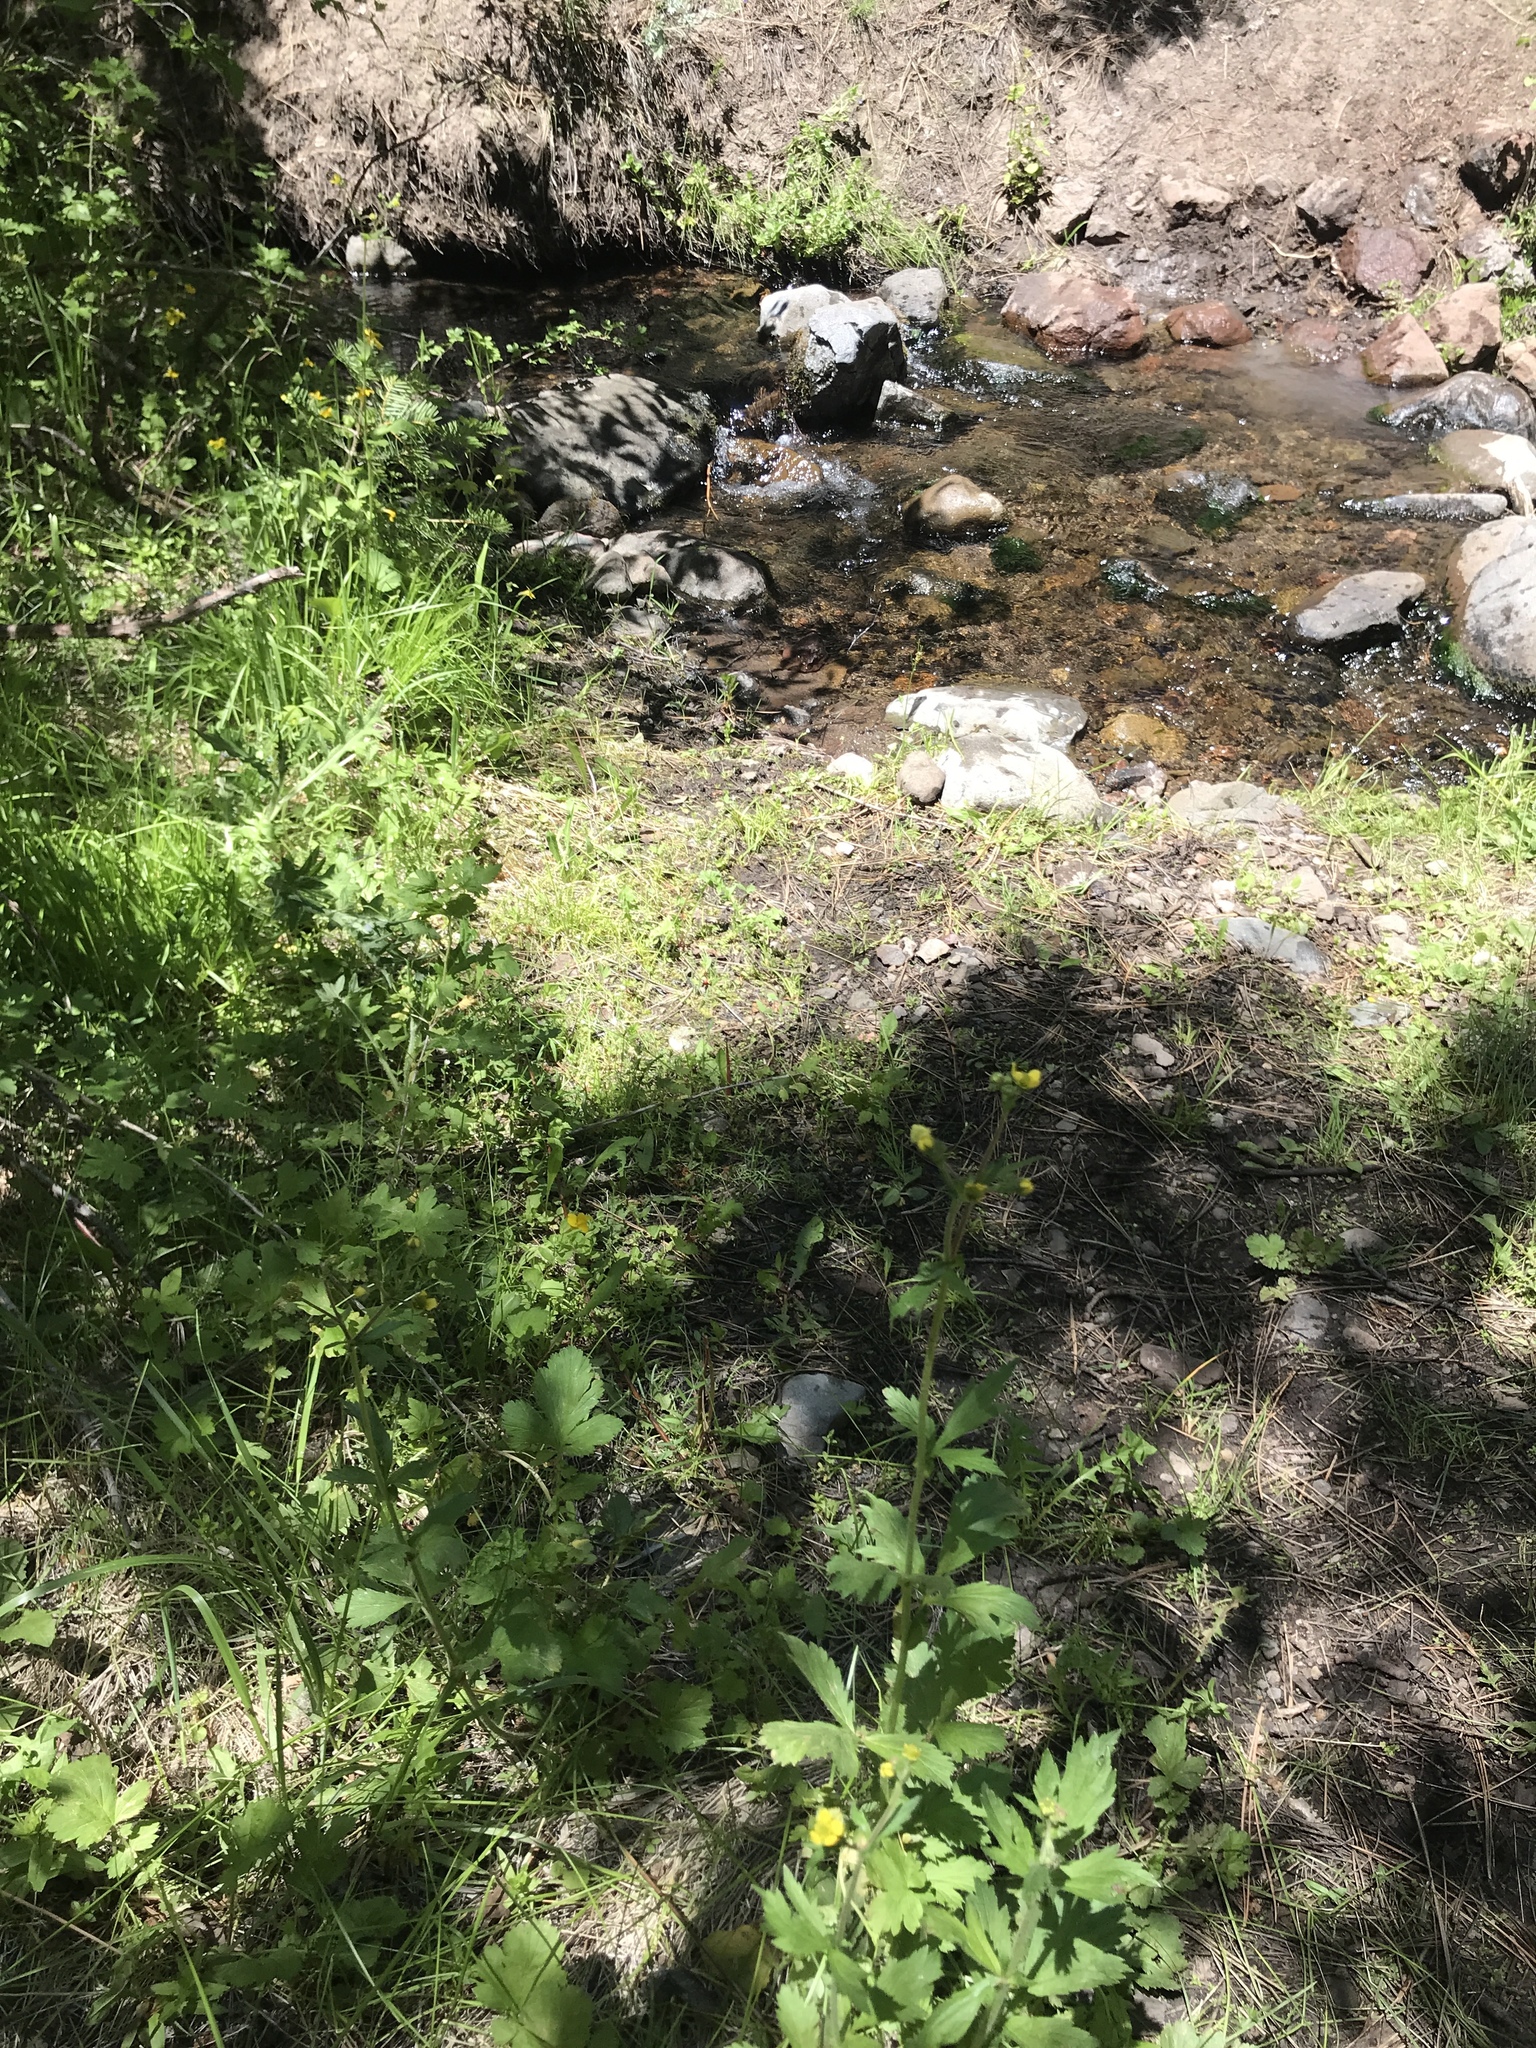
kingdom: Plantae
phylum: Tracheophyta
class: Magnoliopsida
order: Rosales
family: Rosaceae
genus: Geum
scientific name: Geum macrophyllum
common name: Large-leaved avens
